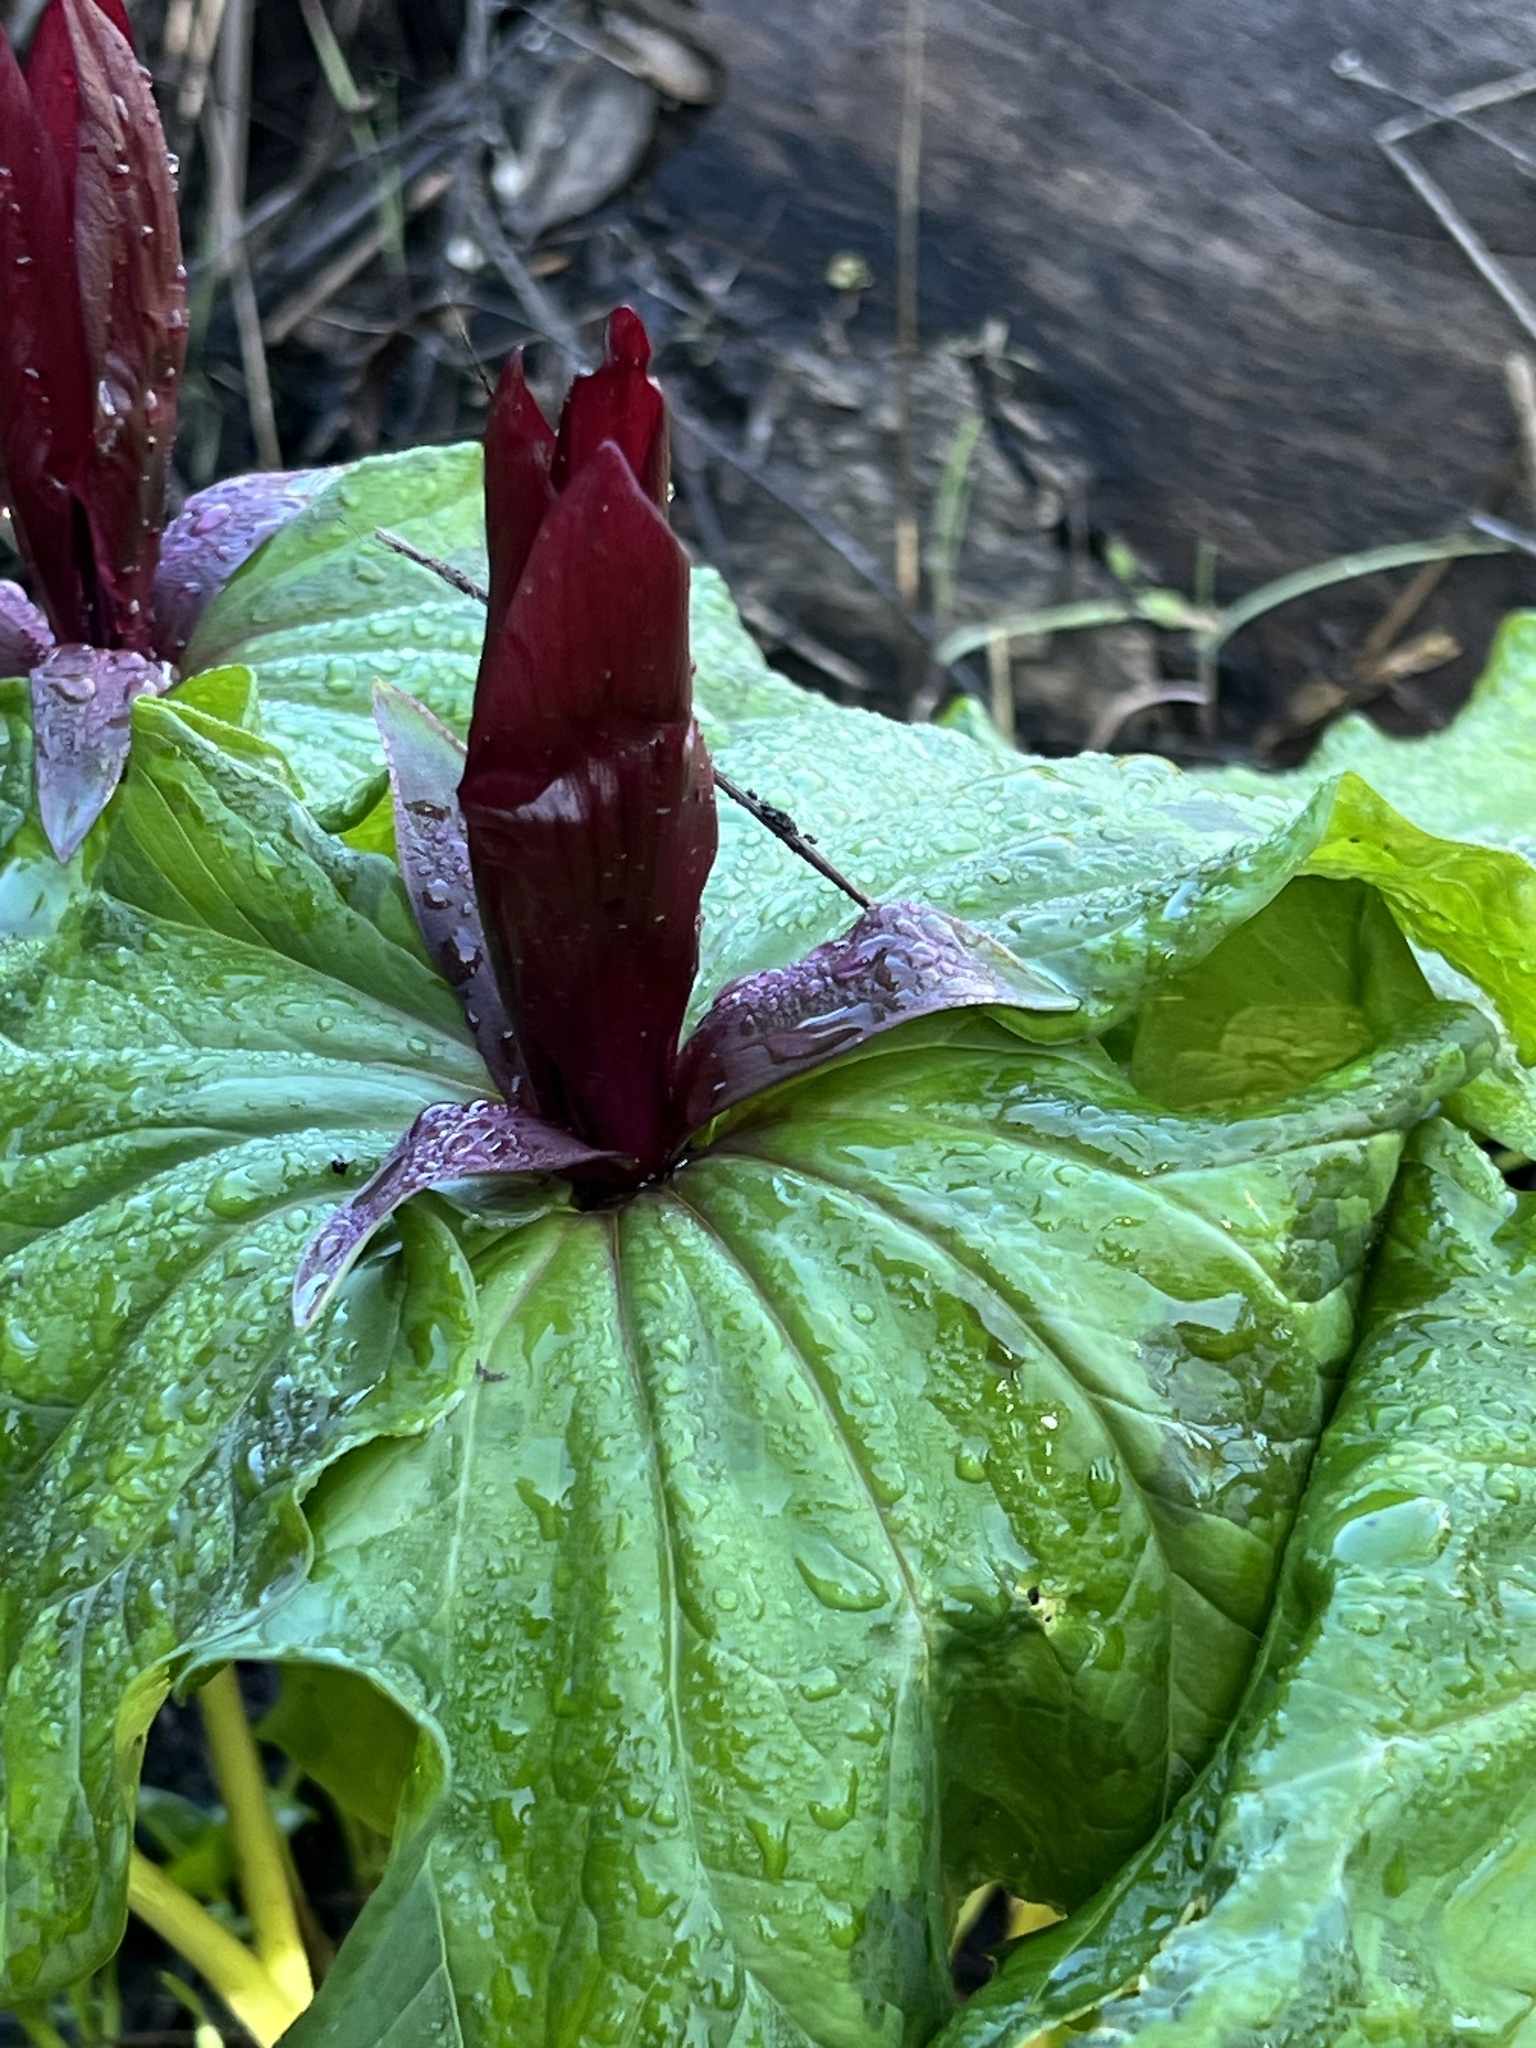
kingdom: Plantae
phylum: Tracheophyta
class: Liliopsida
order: Liliales
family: Melanthiaceae
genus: Trillium
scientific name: Trillium chloropetalum
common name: Giant trillium
